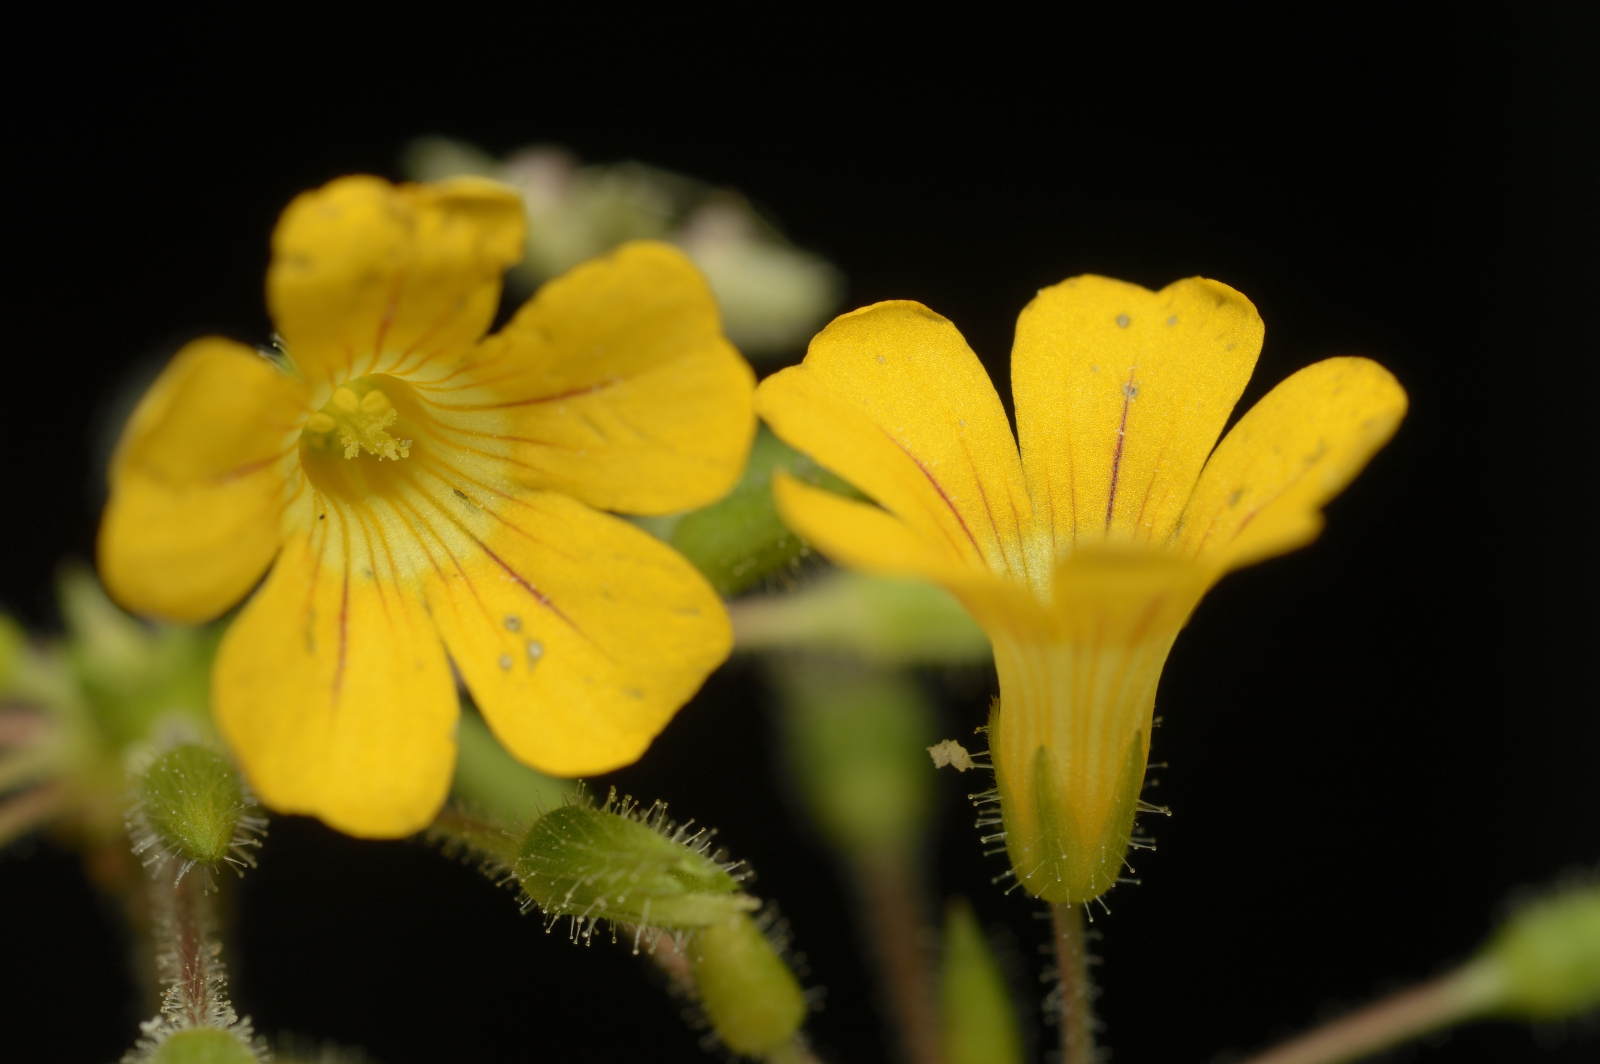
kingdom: Plantae
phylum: Tracheophyta
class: Magnoliopsida
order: Oxalidales
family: Oxalidaceae
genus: Biophytum
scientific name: Biophytum sensitivum
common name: Lifeplant
